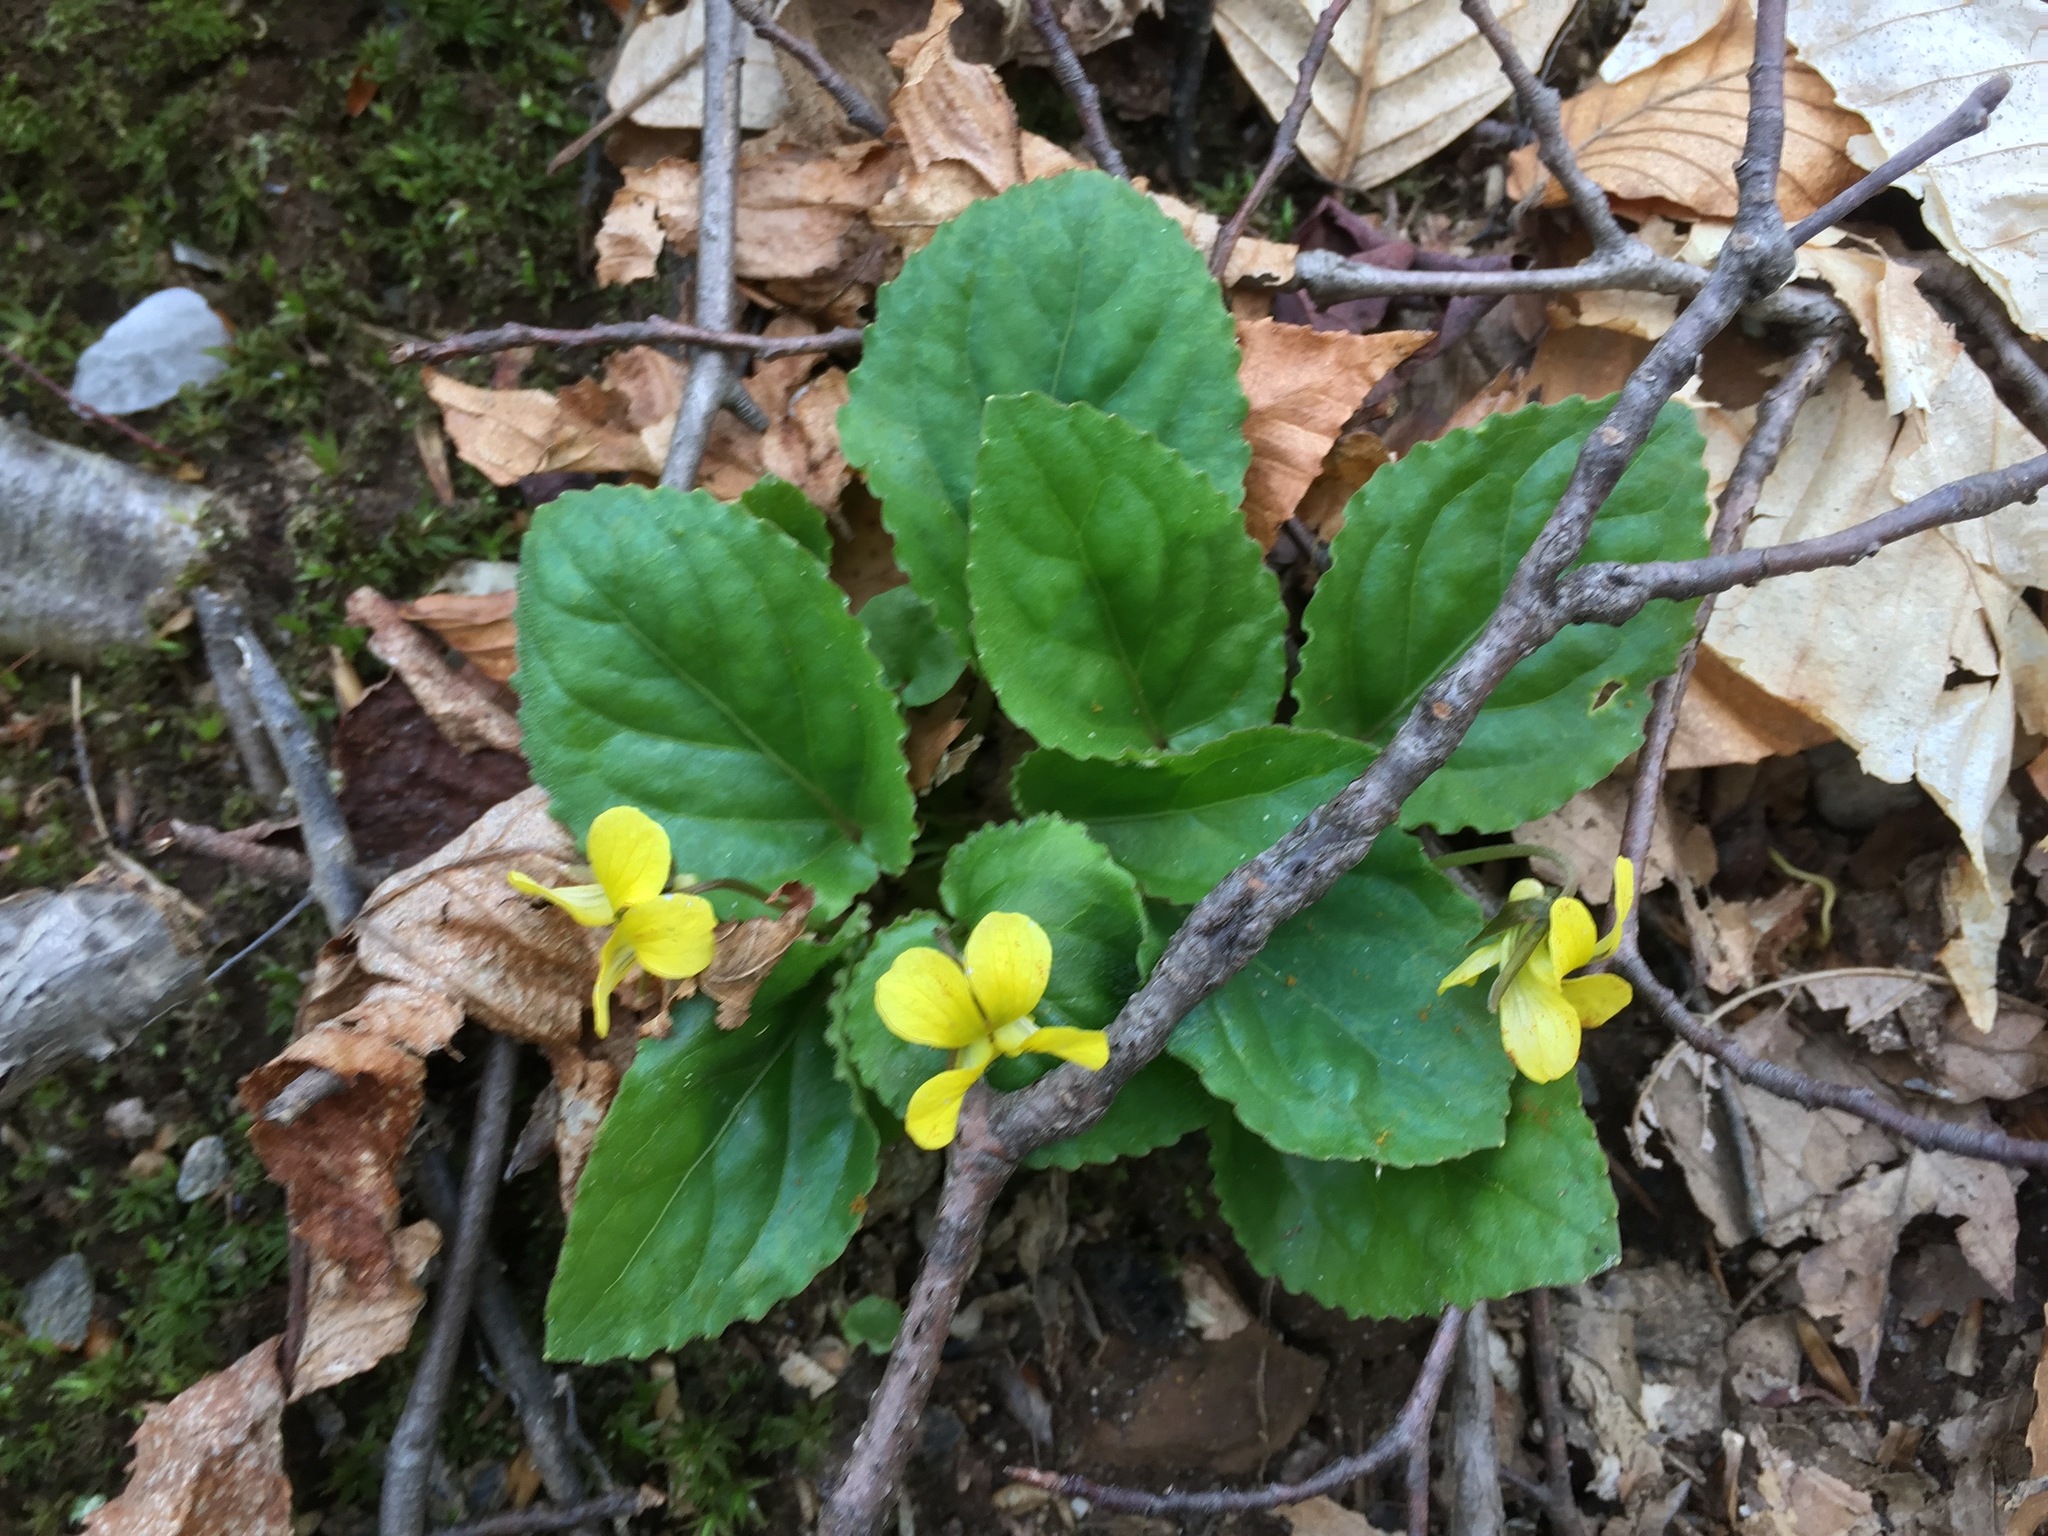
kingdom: Plantae
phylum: Tracheophyta
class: Magnoliopsida
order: Malpighiales
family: Violaceae
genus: Viola
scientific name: Viola rotundifolia
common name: Early yellow violet
